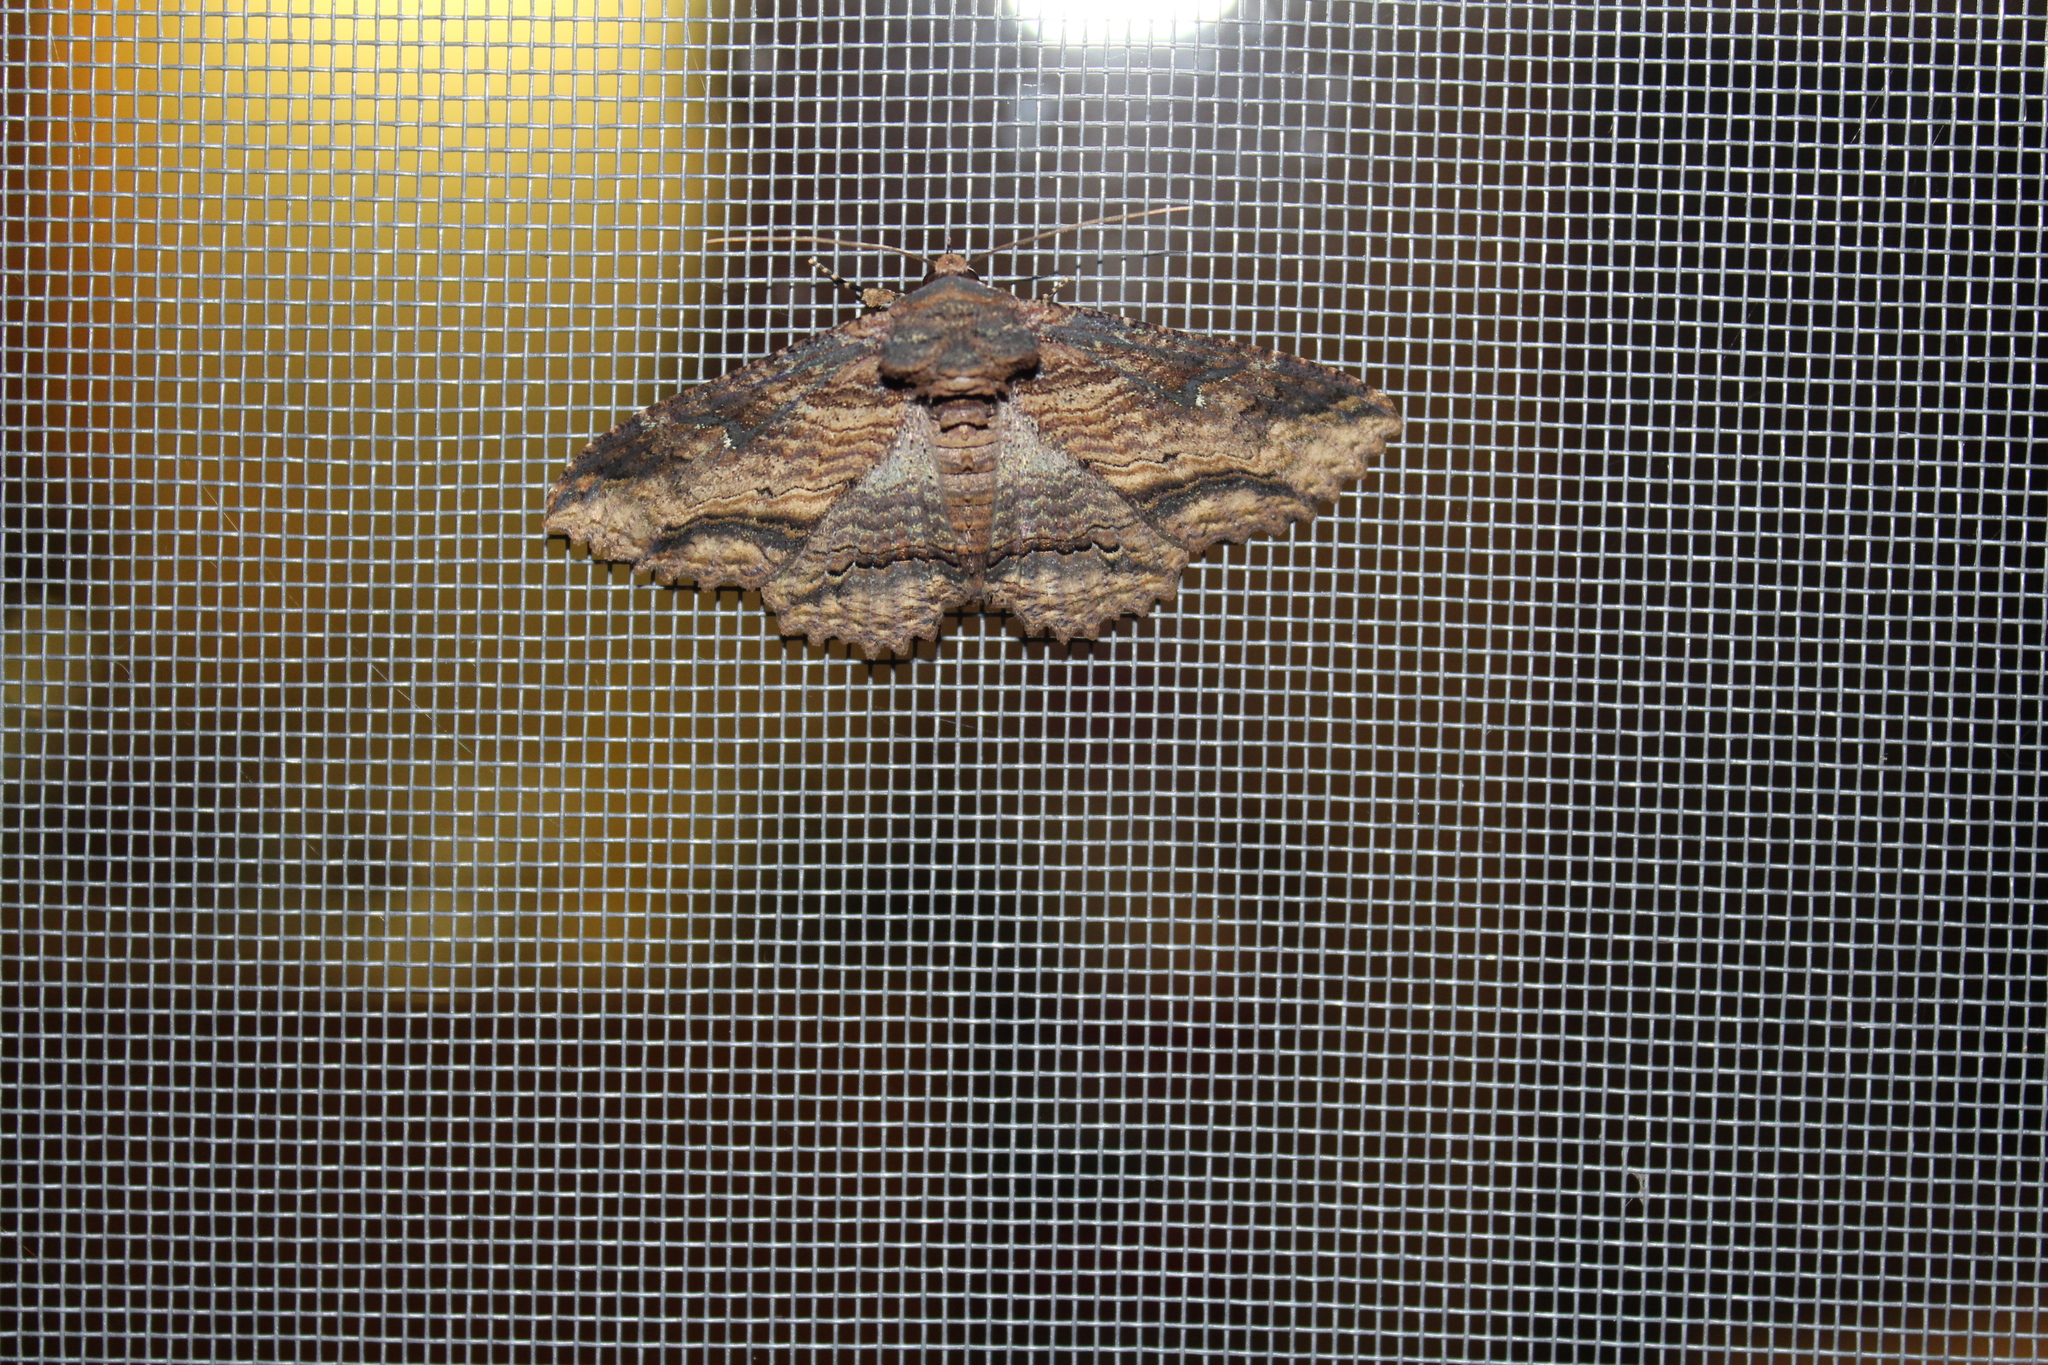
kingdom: Animalia
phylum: Arthropoda
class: Insecta
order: Lepidoptera
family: Erebidae
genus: Zale
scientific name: Zale lunata
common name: Lunate zale moth
